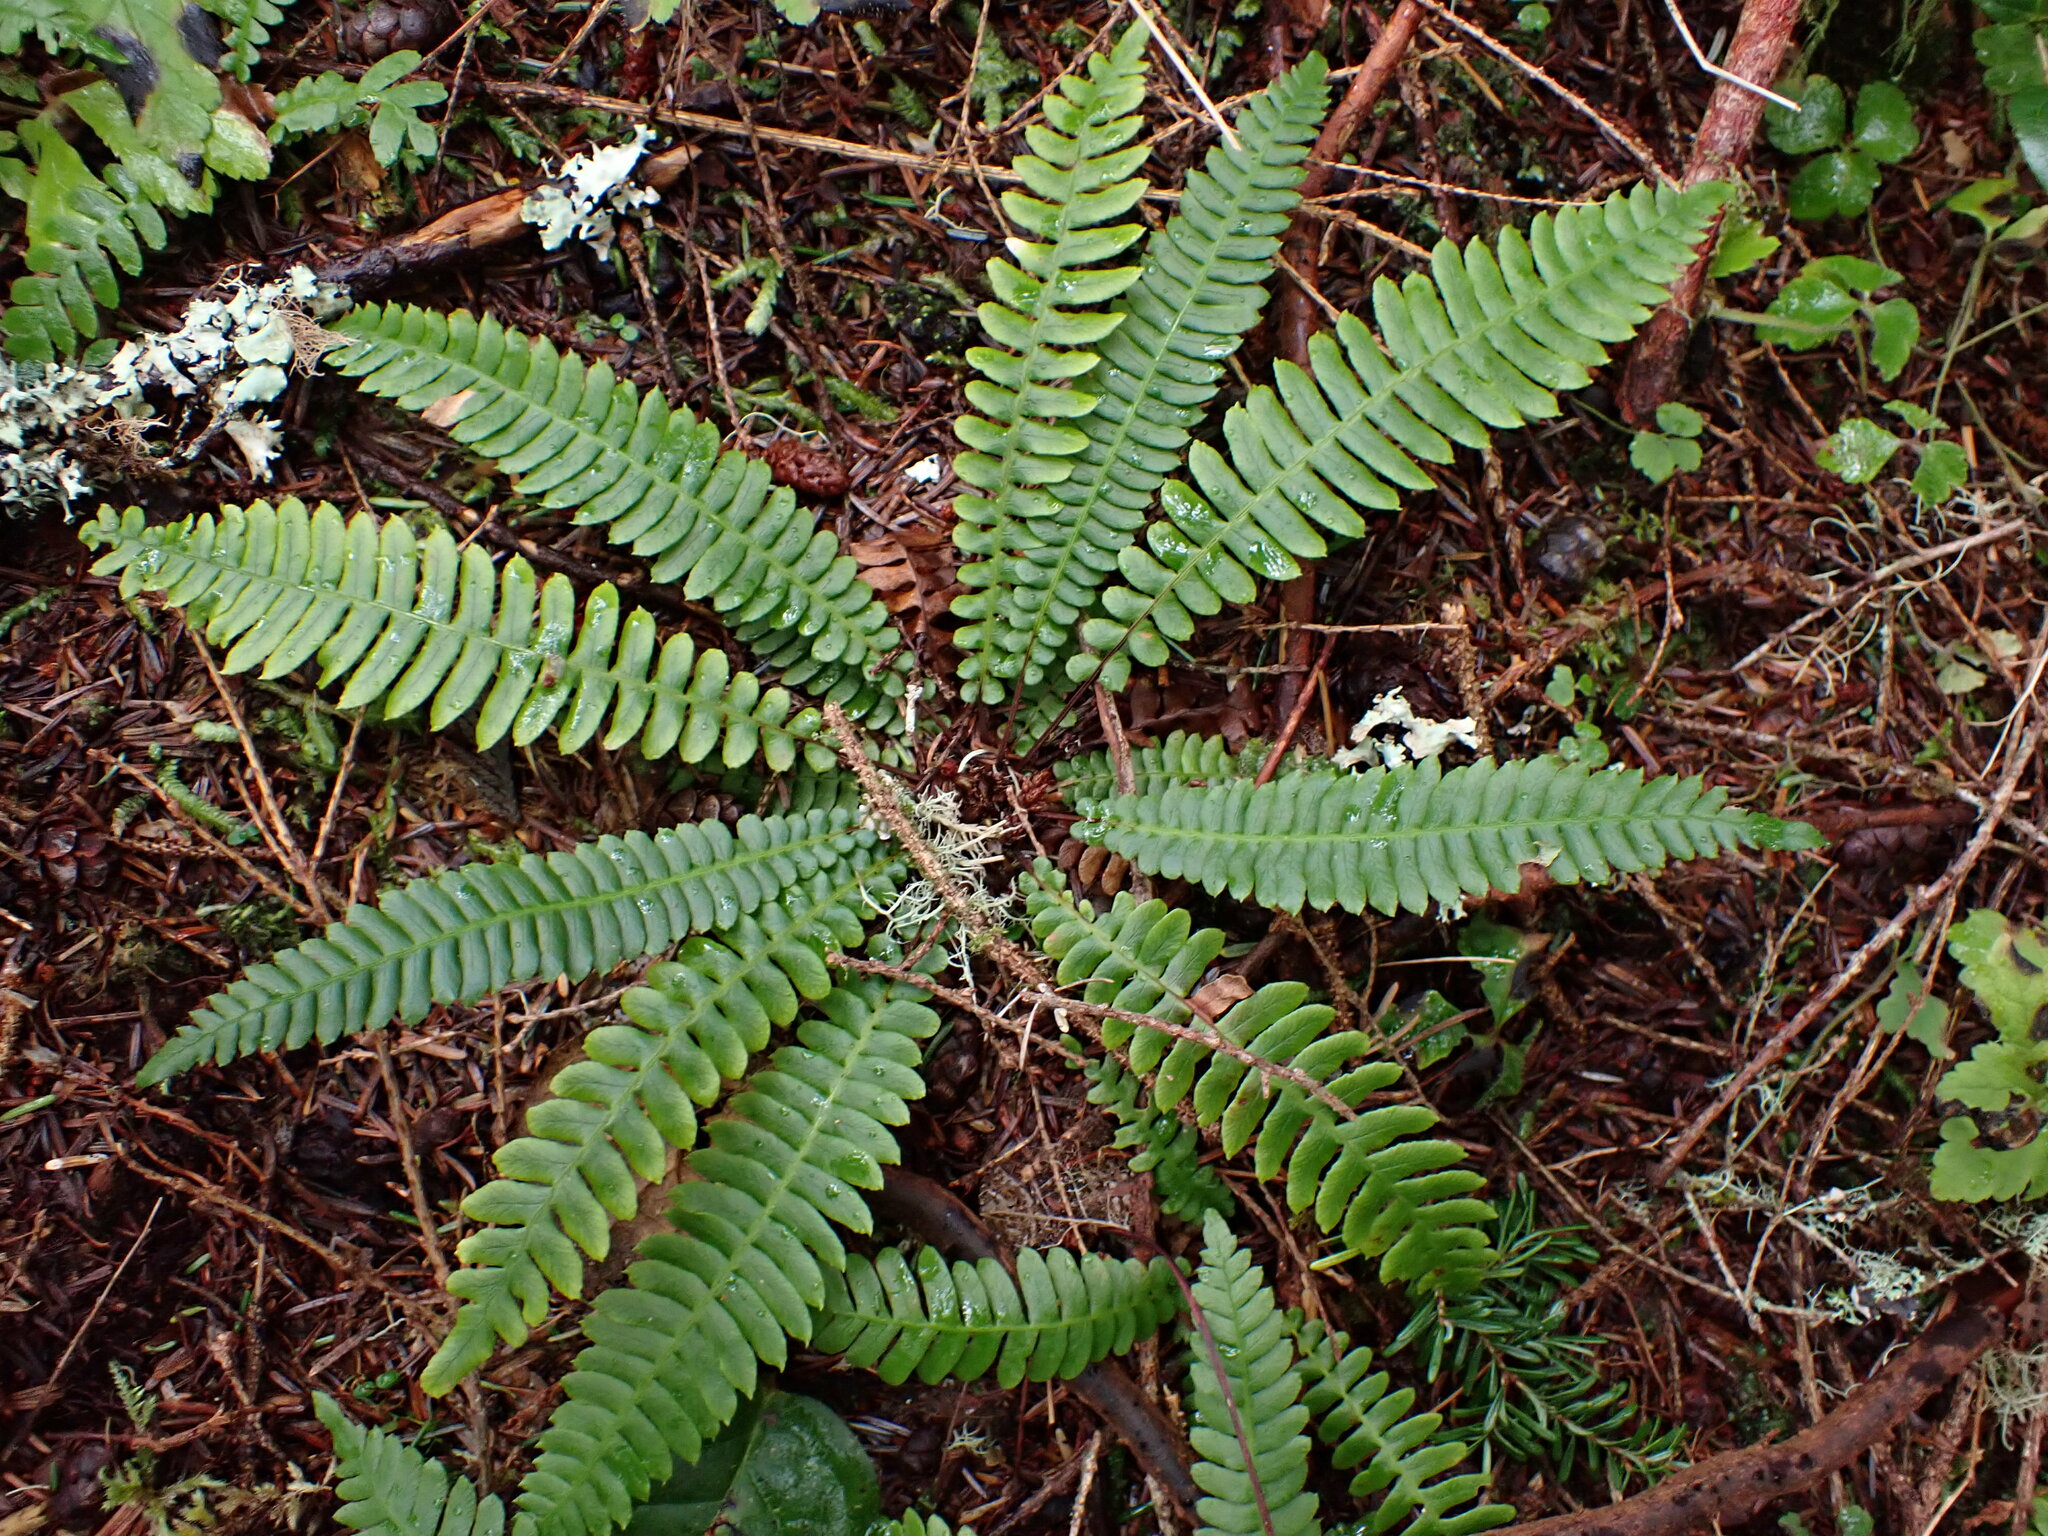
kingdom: Plantae
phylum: Tracheophyta
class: Polypodiopsida
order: Polypodiales
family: Blechnaceae
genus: Struthiopteris
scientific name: Struthiopteris spicant
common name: Deer fern
